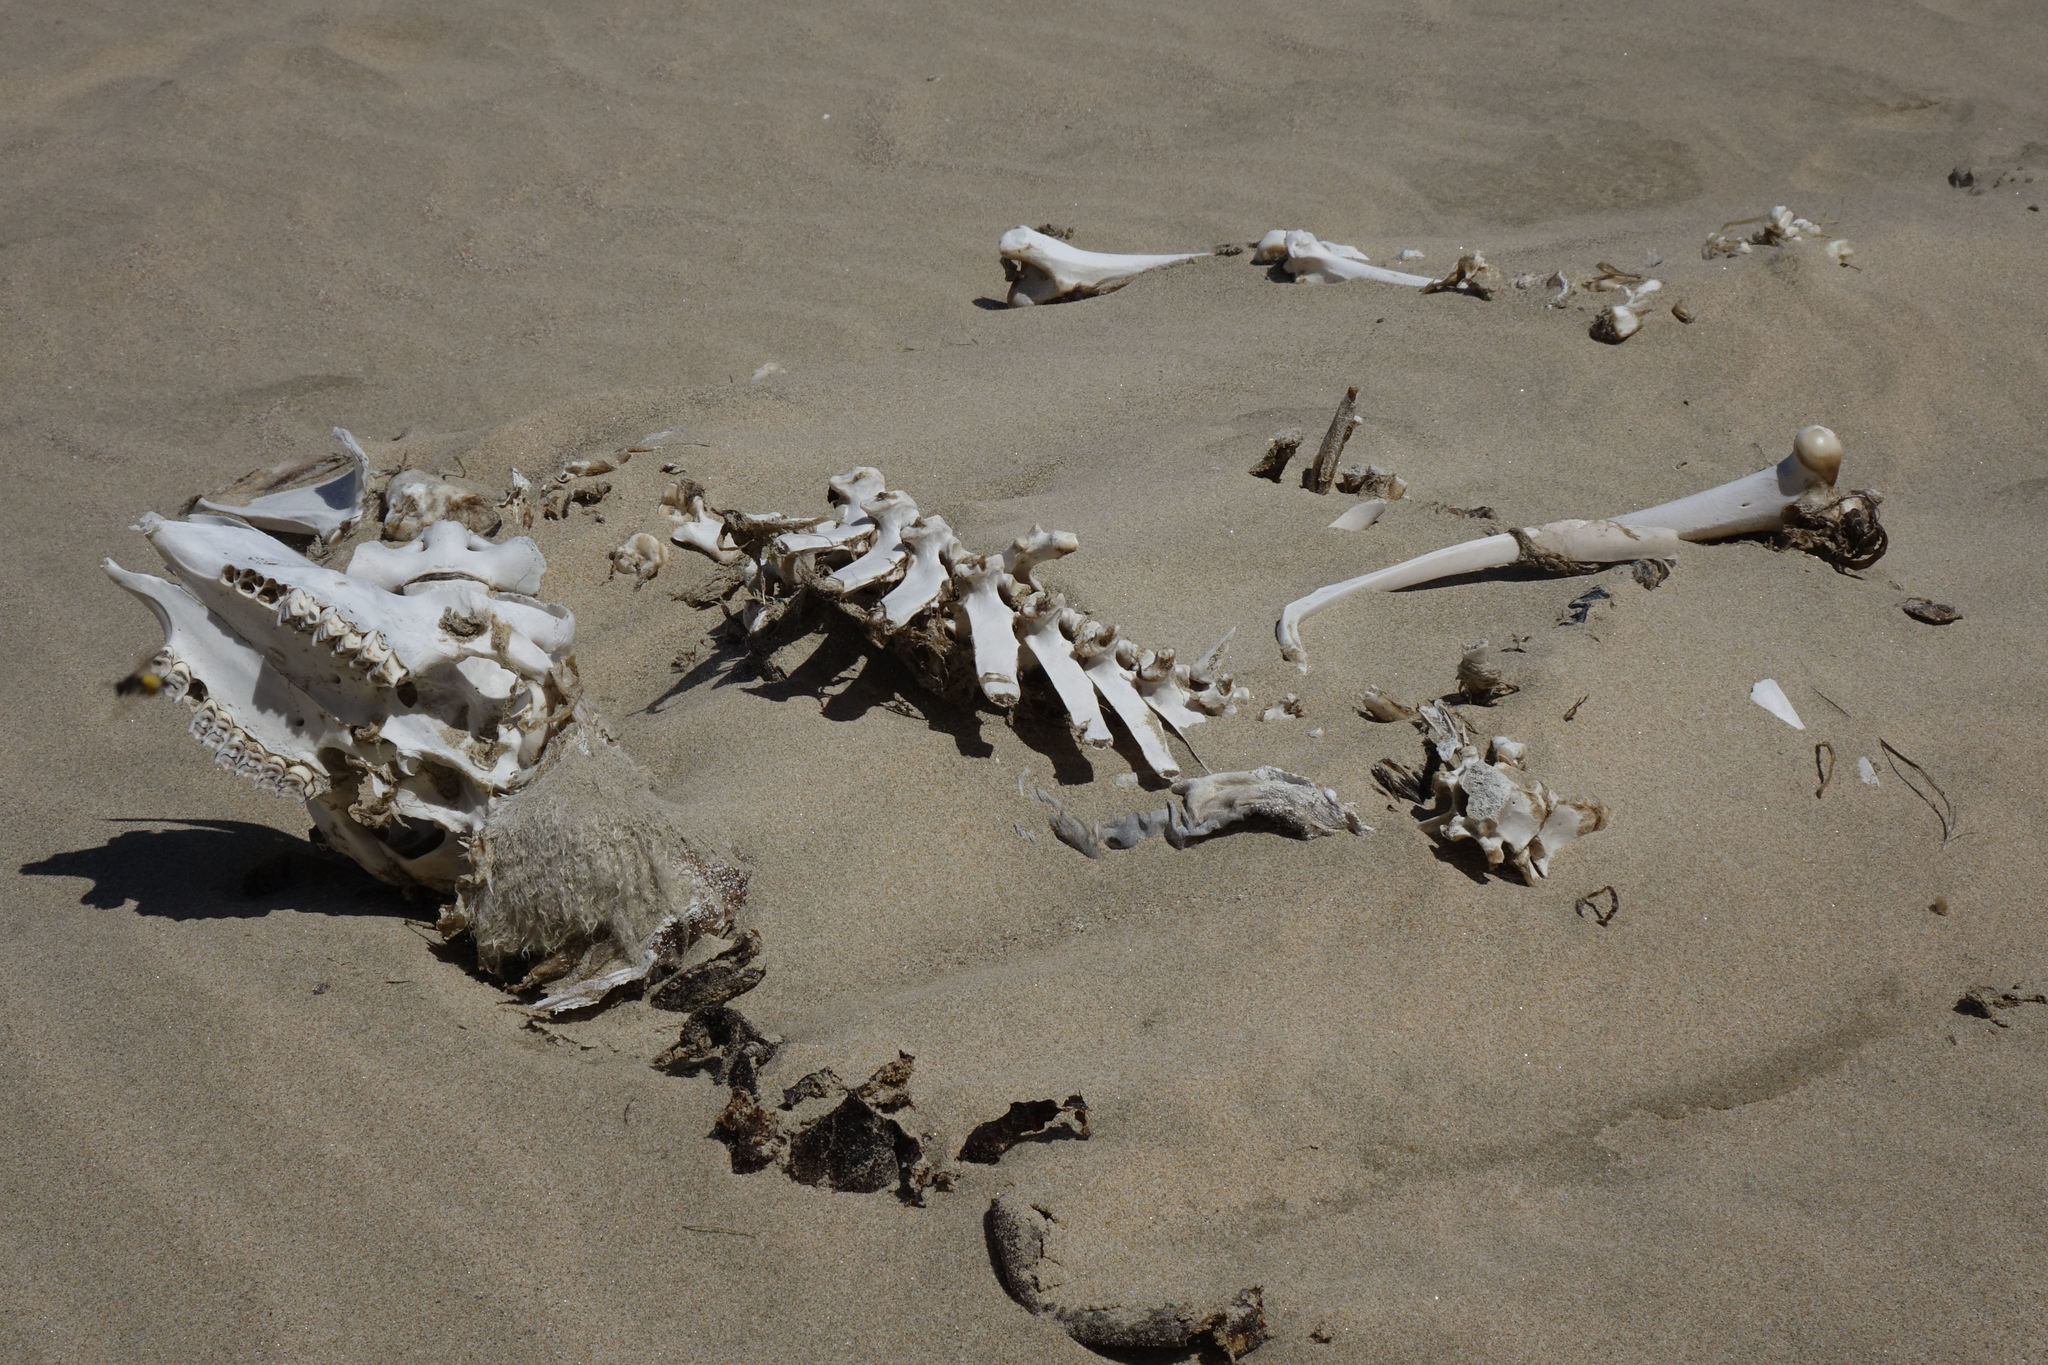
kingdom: Animalia
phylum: Chordata
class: Mammalia
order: Artiodactyla
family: Bovidae
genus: Ovis
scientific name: Ovis aries
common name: Domestic sheep
